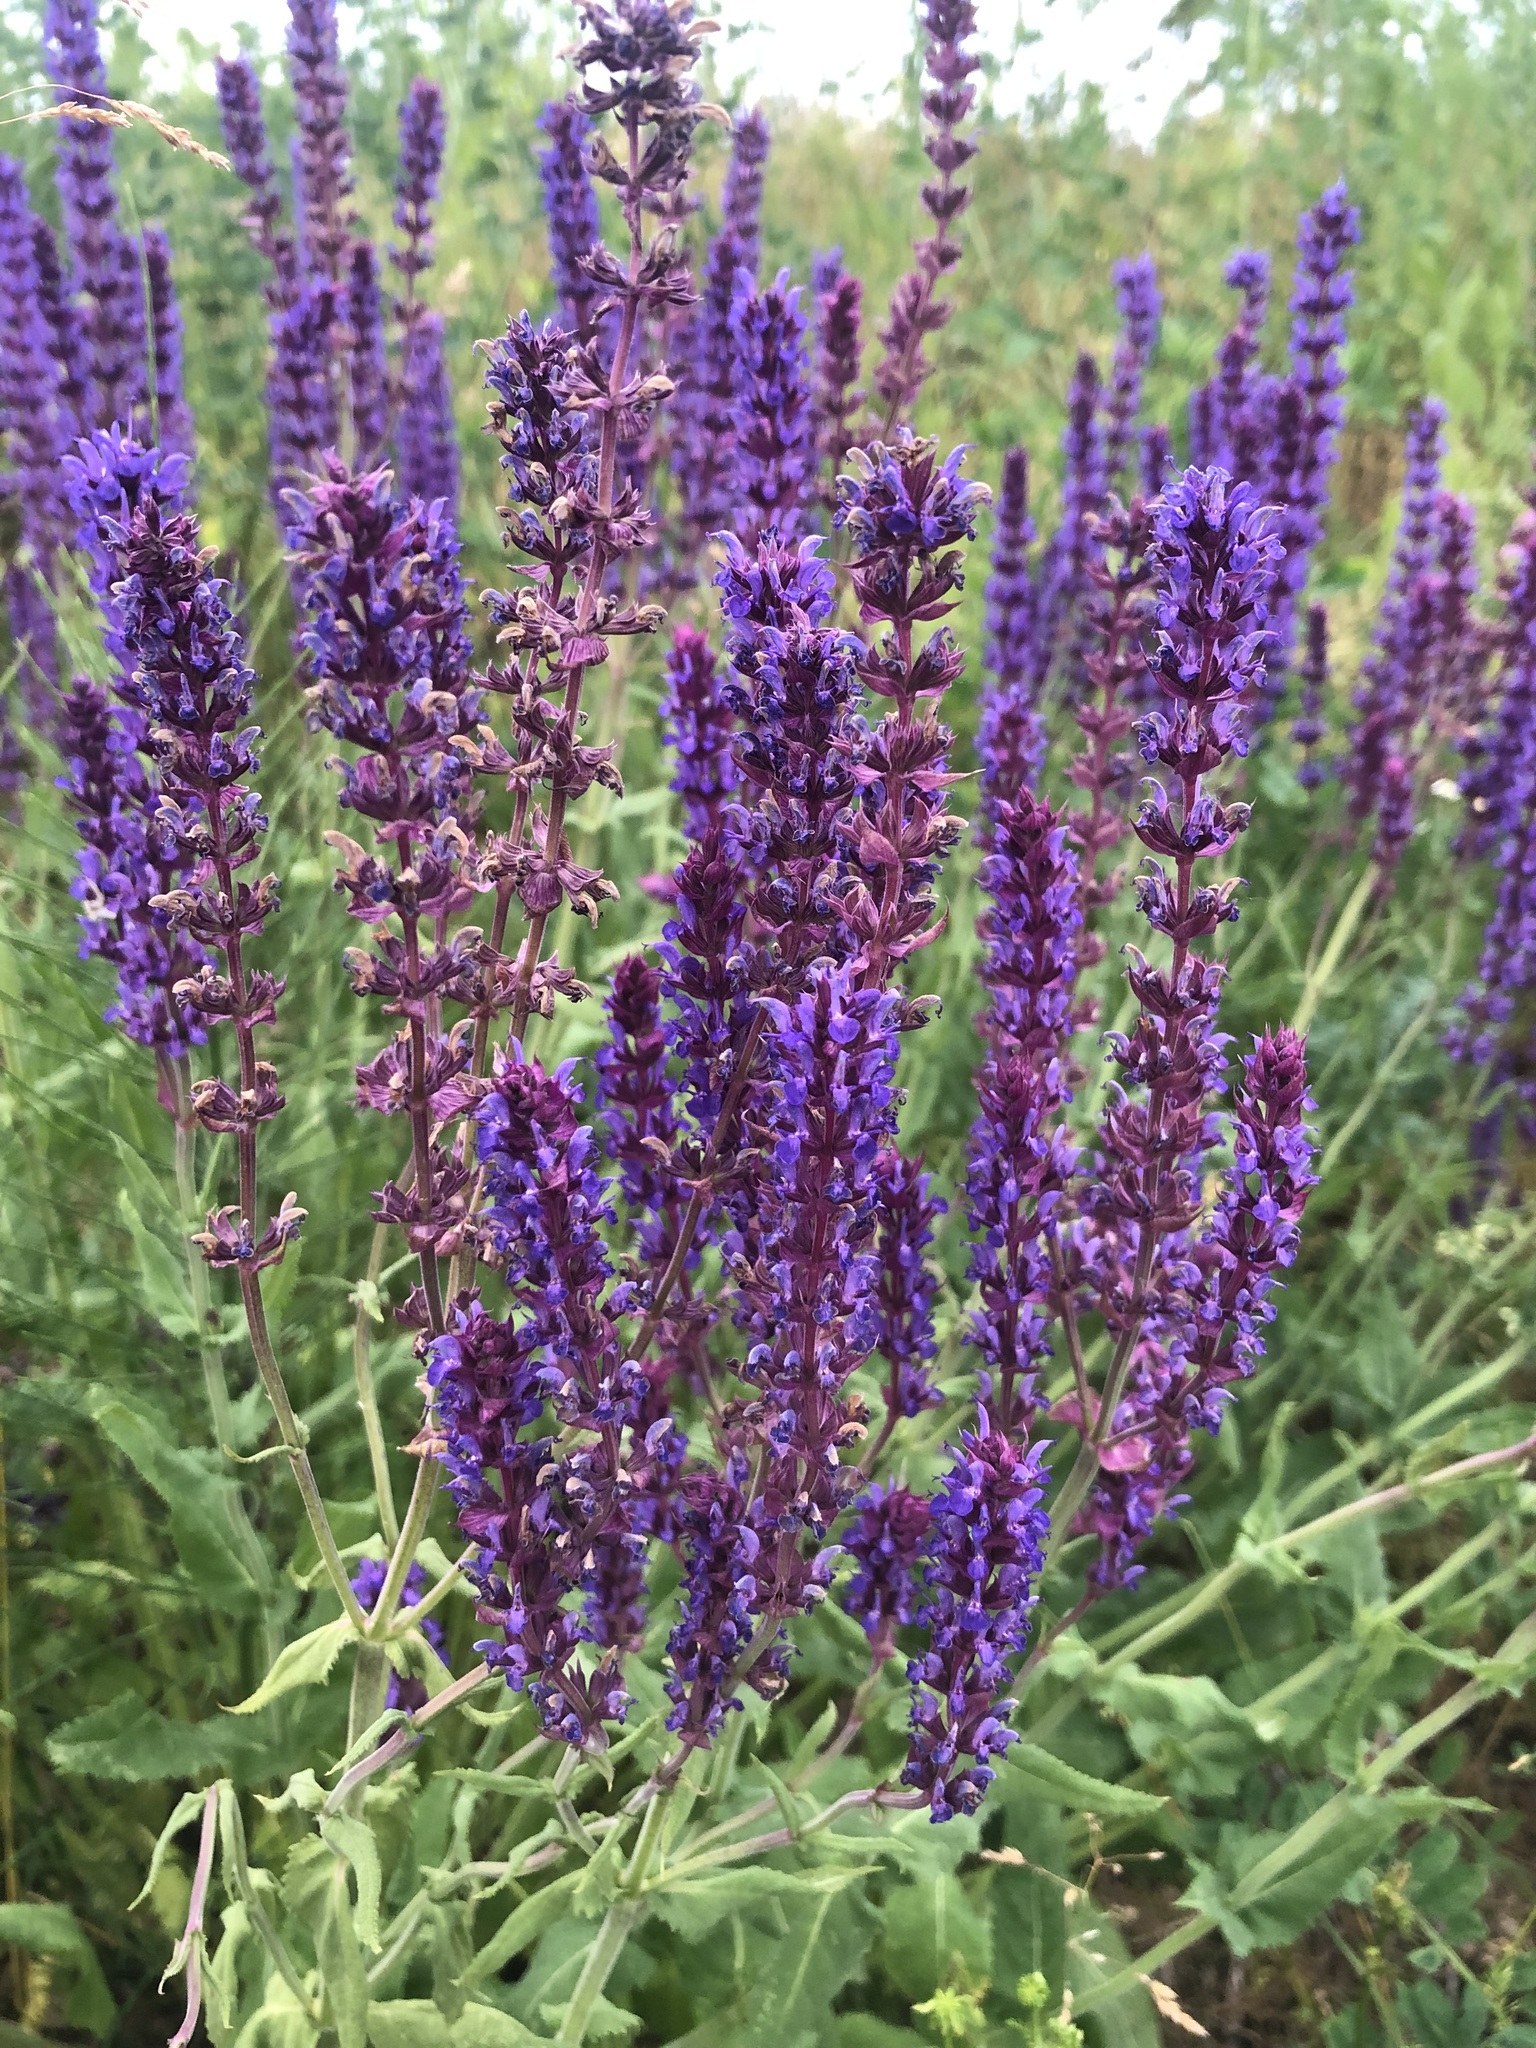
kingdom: Plantae
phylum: Tracheophyta
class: Magnoliopsida
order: Lamiales
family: Lamiaceae
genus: Salvia
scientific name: Salvia nemorosa
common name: Balkan clary
